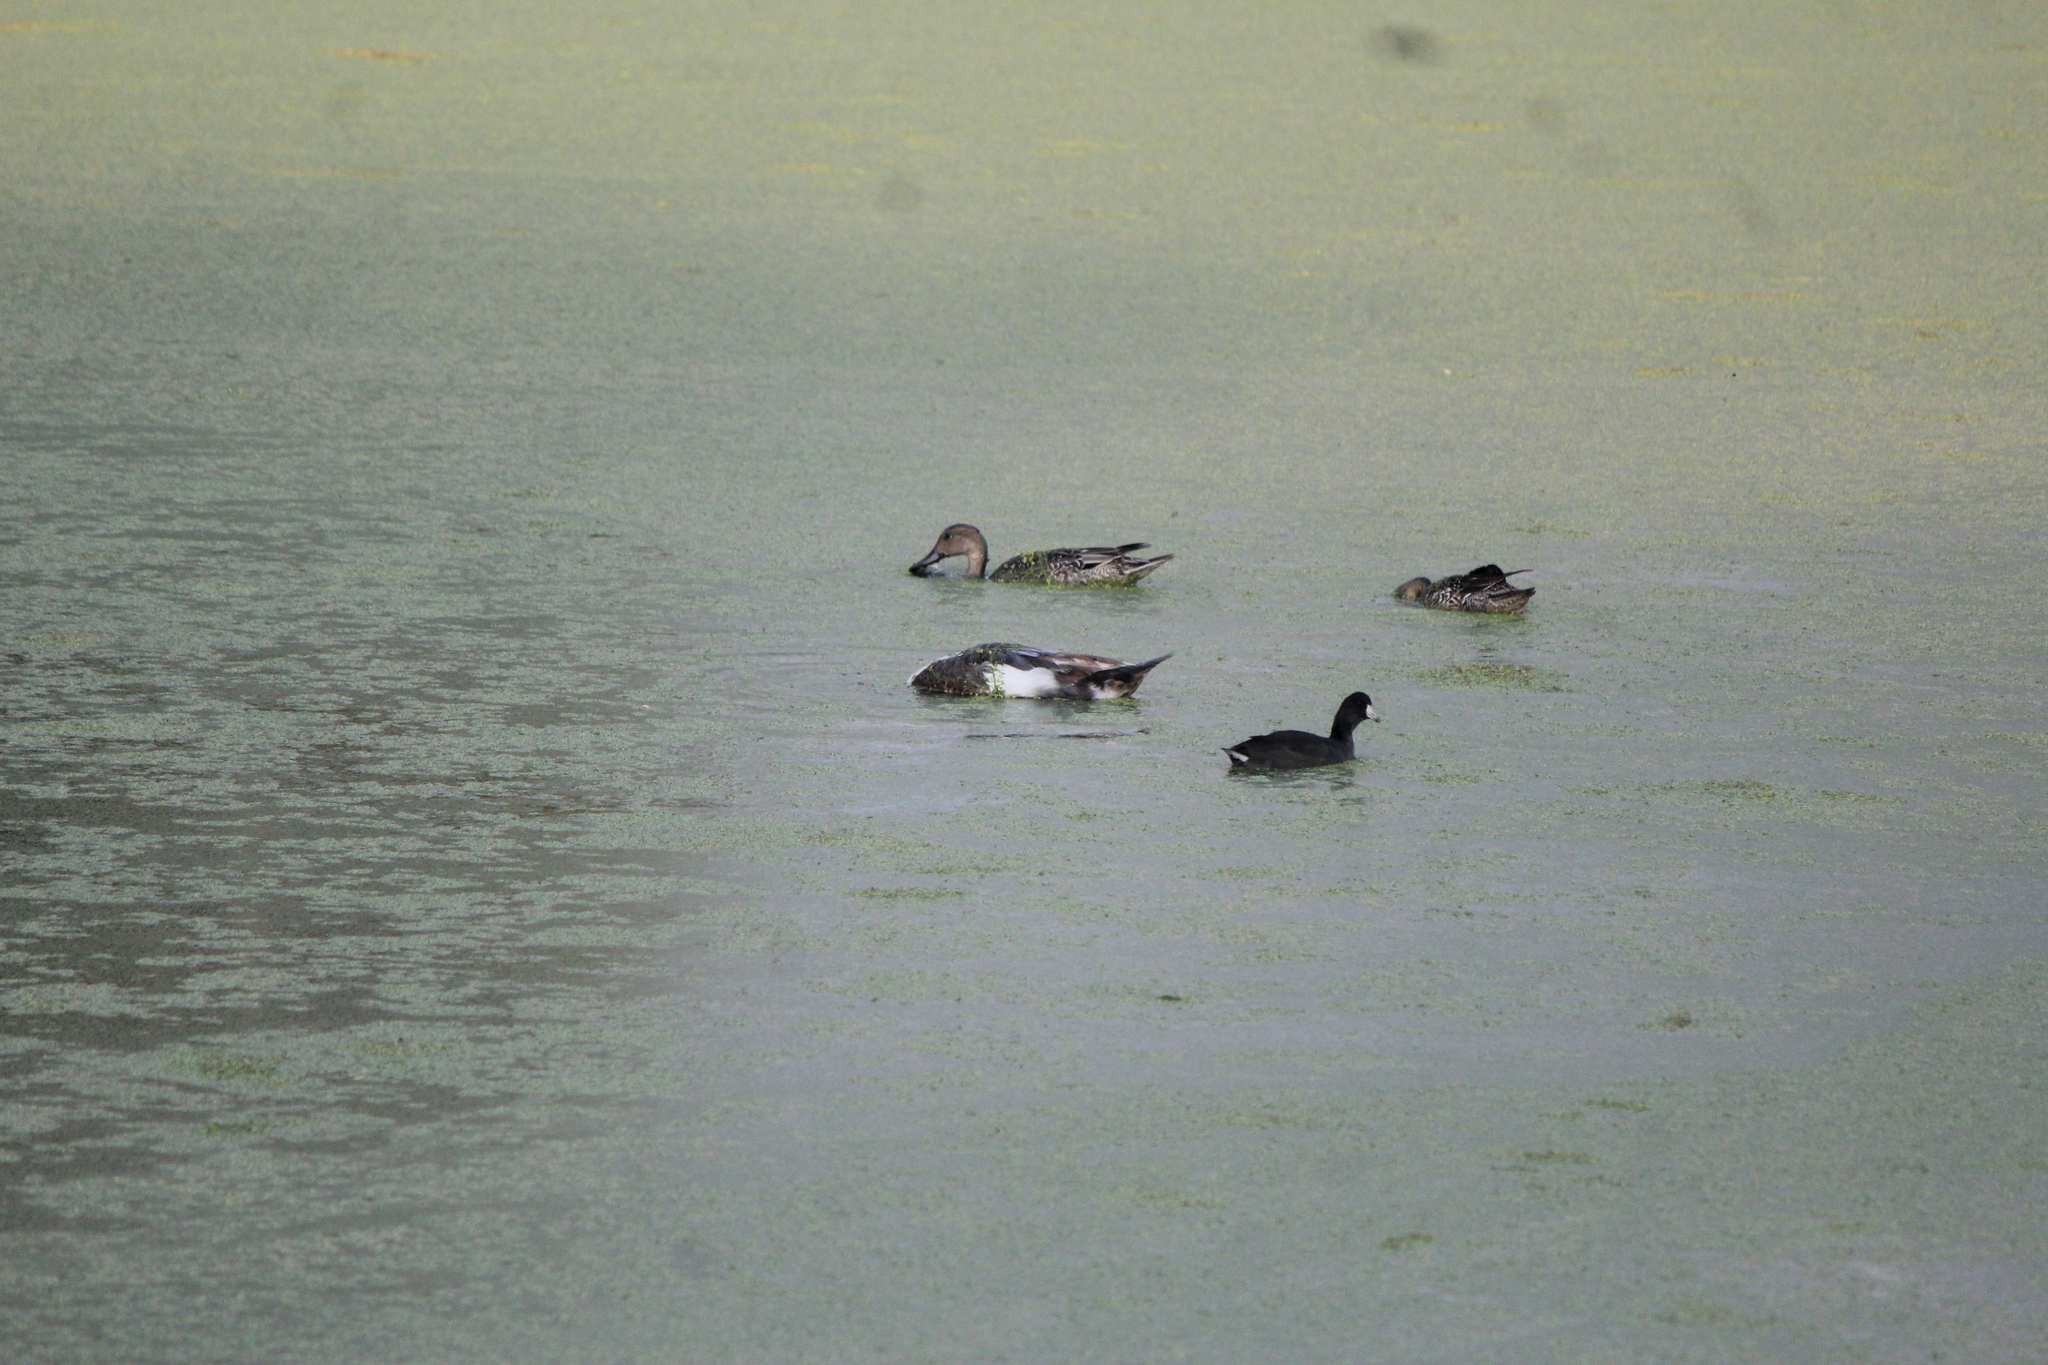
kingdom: Animalia
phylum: Chordata
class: Aves
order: Gruiformes
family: Rallidae
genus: Fulica
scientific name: Fulica americana
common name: American coot
